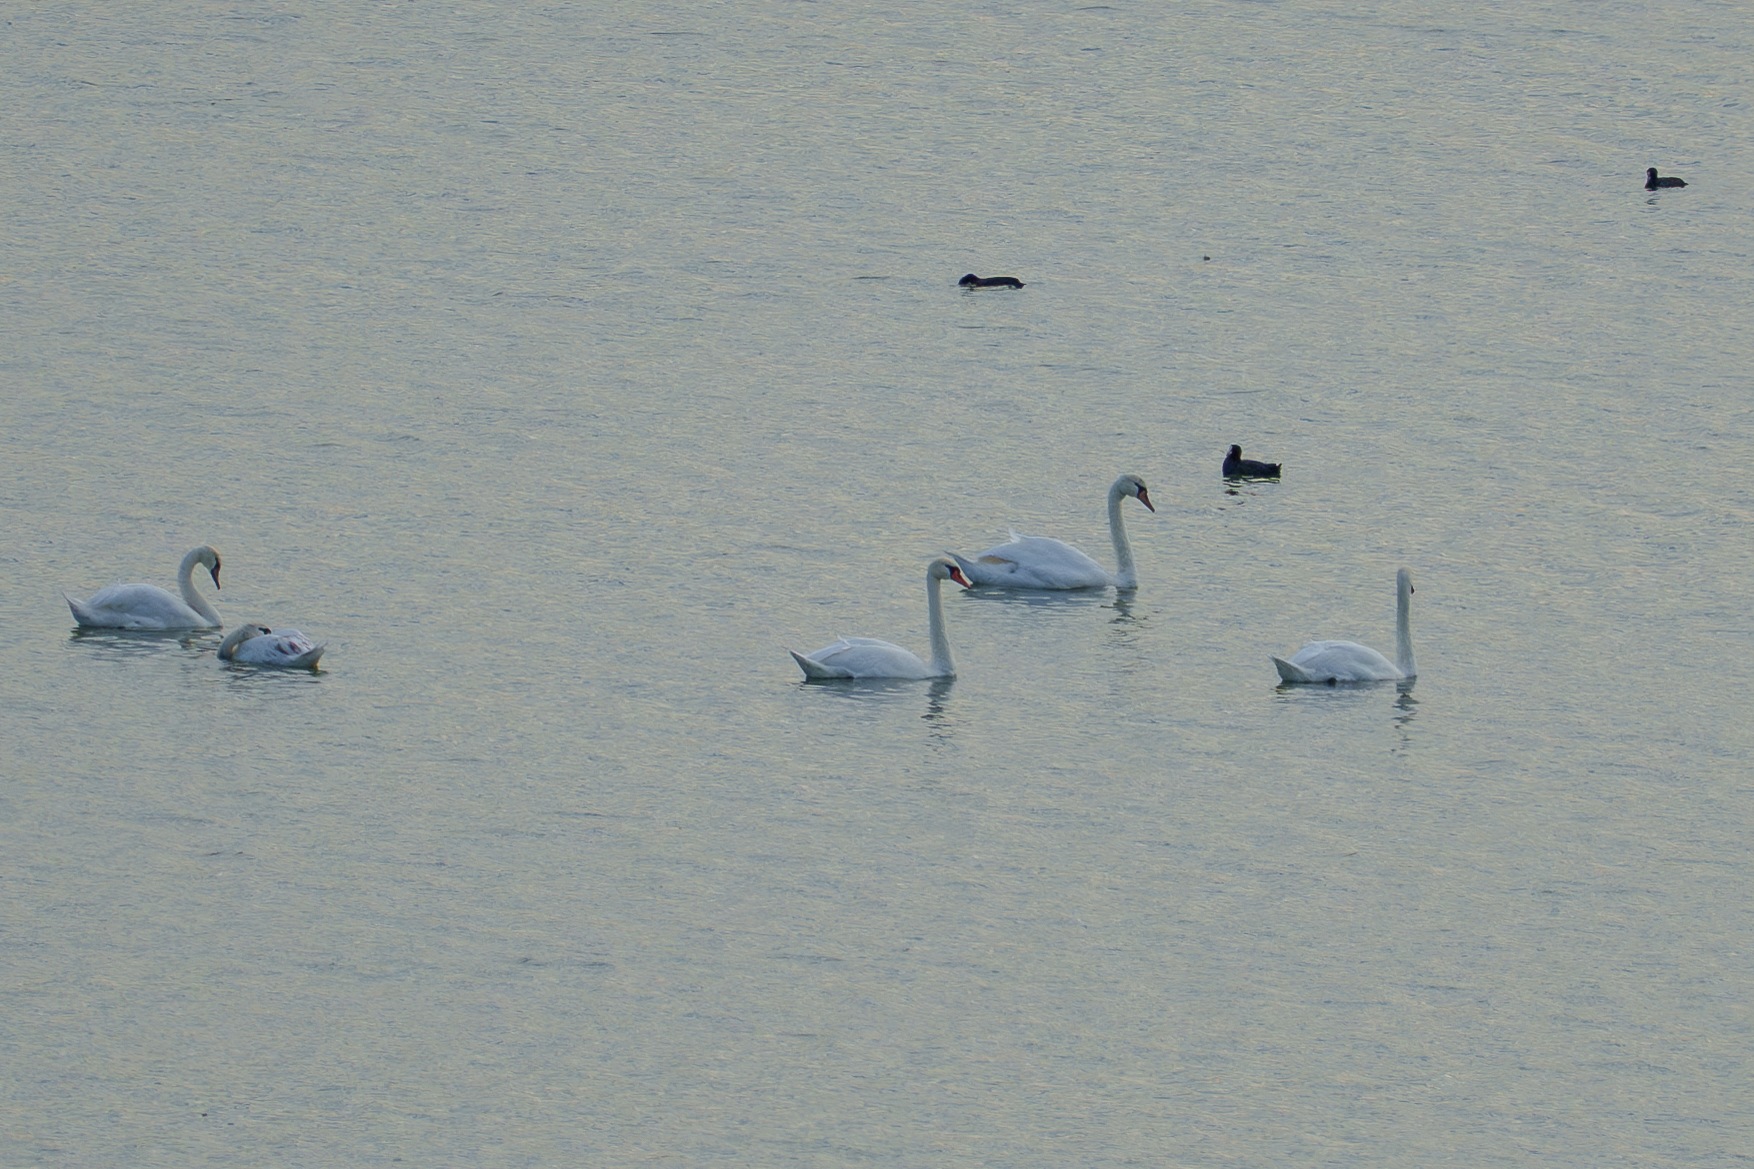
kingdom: Animalia
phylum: Chordata
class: Aves
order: Anseriformes
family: Anatidae
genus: Cygnus
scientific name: Cygnus olor
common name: Mute swan
